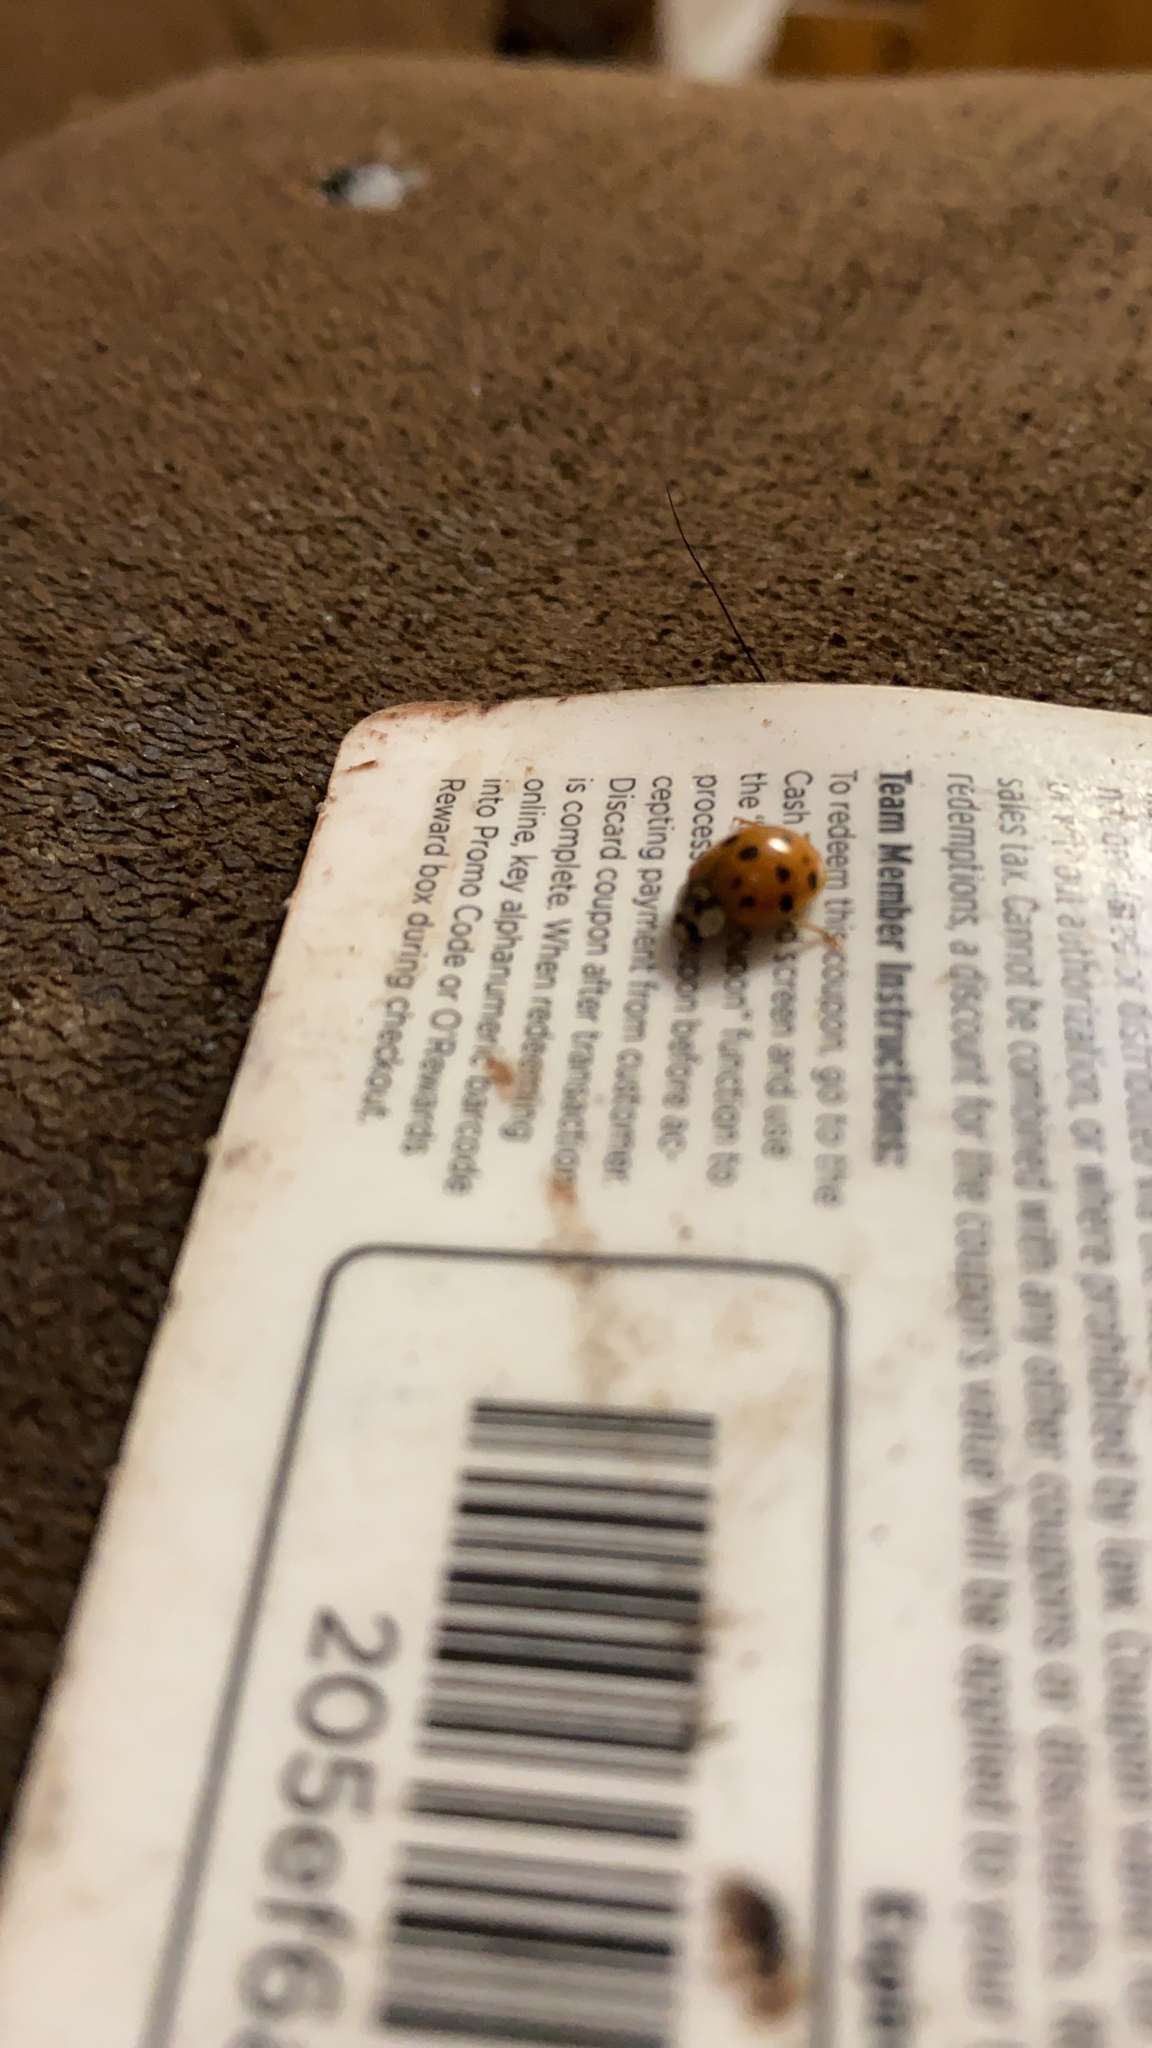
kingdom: Animalia
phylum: Arthropoda
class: Insecta
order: Coleoptera
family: Coccinellidae
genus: Harmonia
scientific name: Harmonia axyridis
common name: Harlequin ladybird
